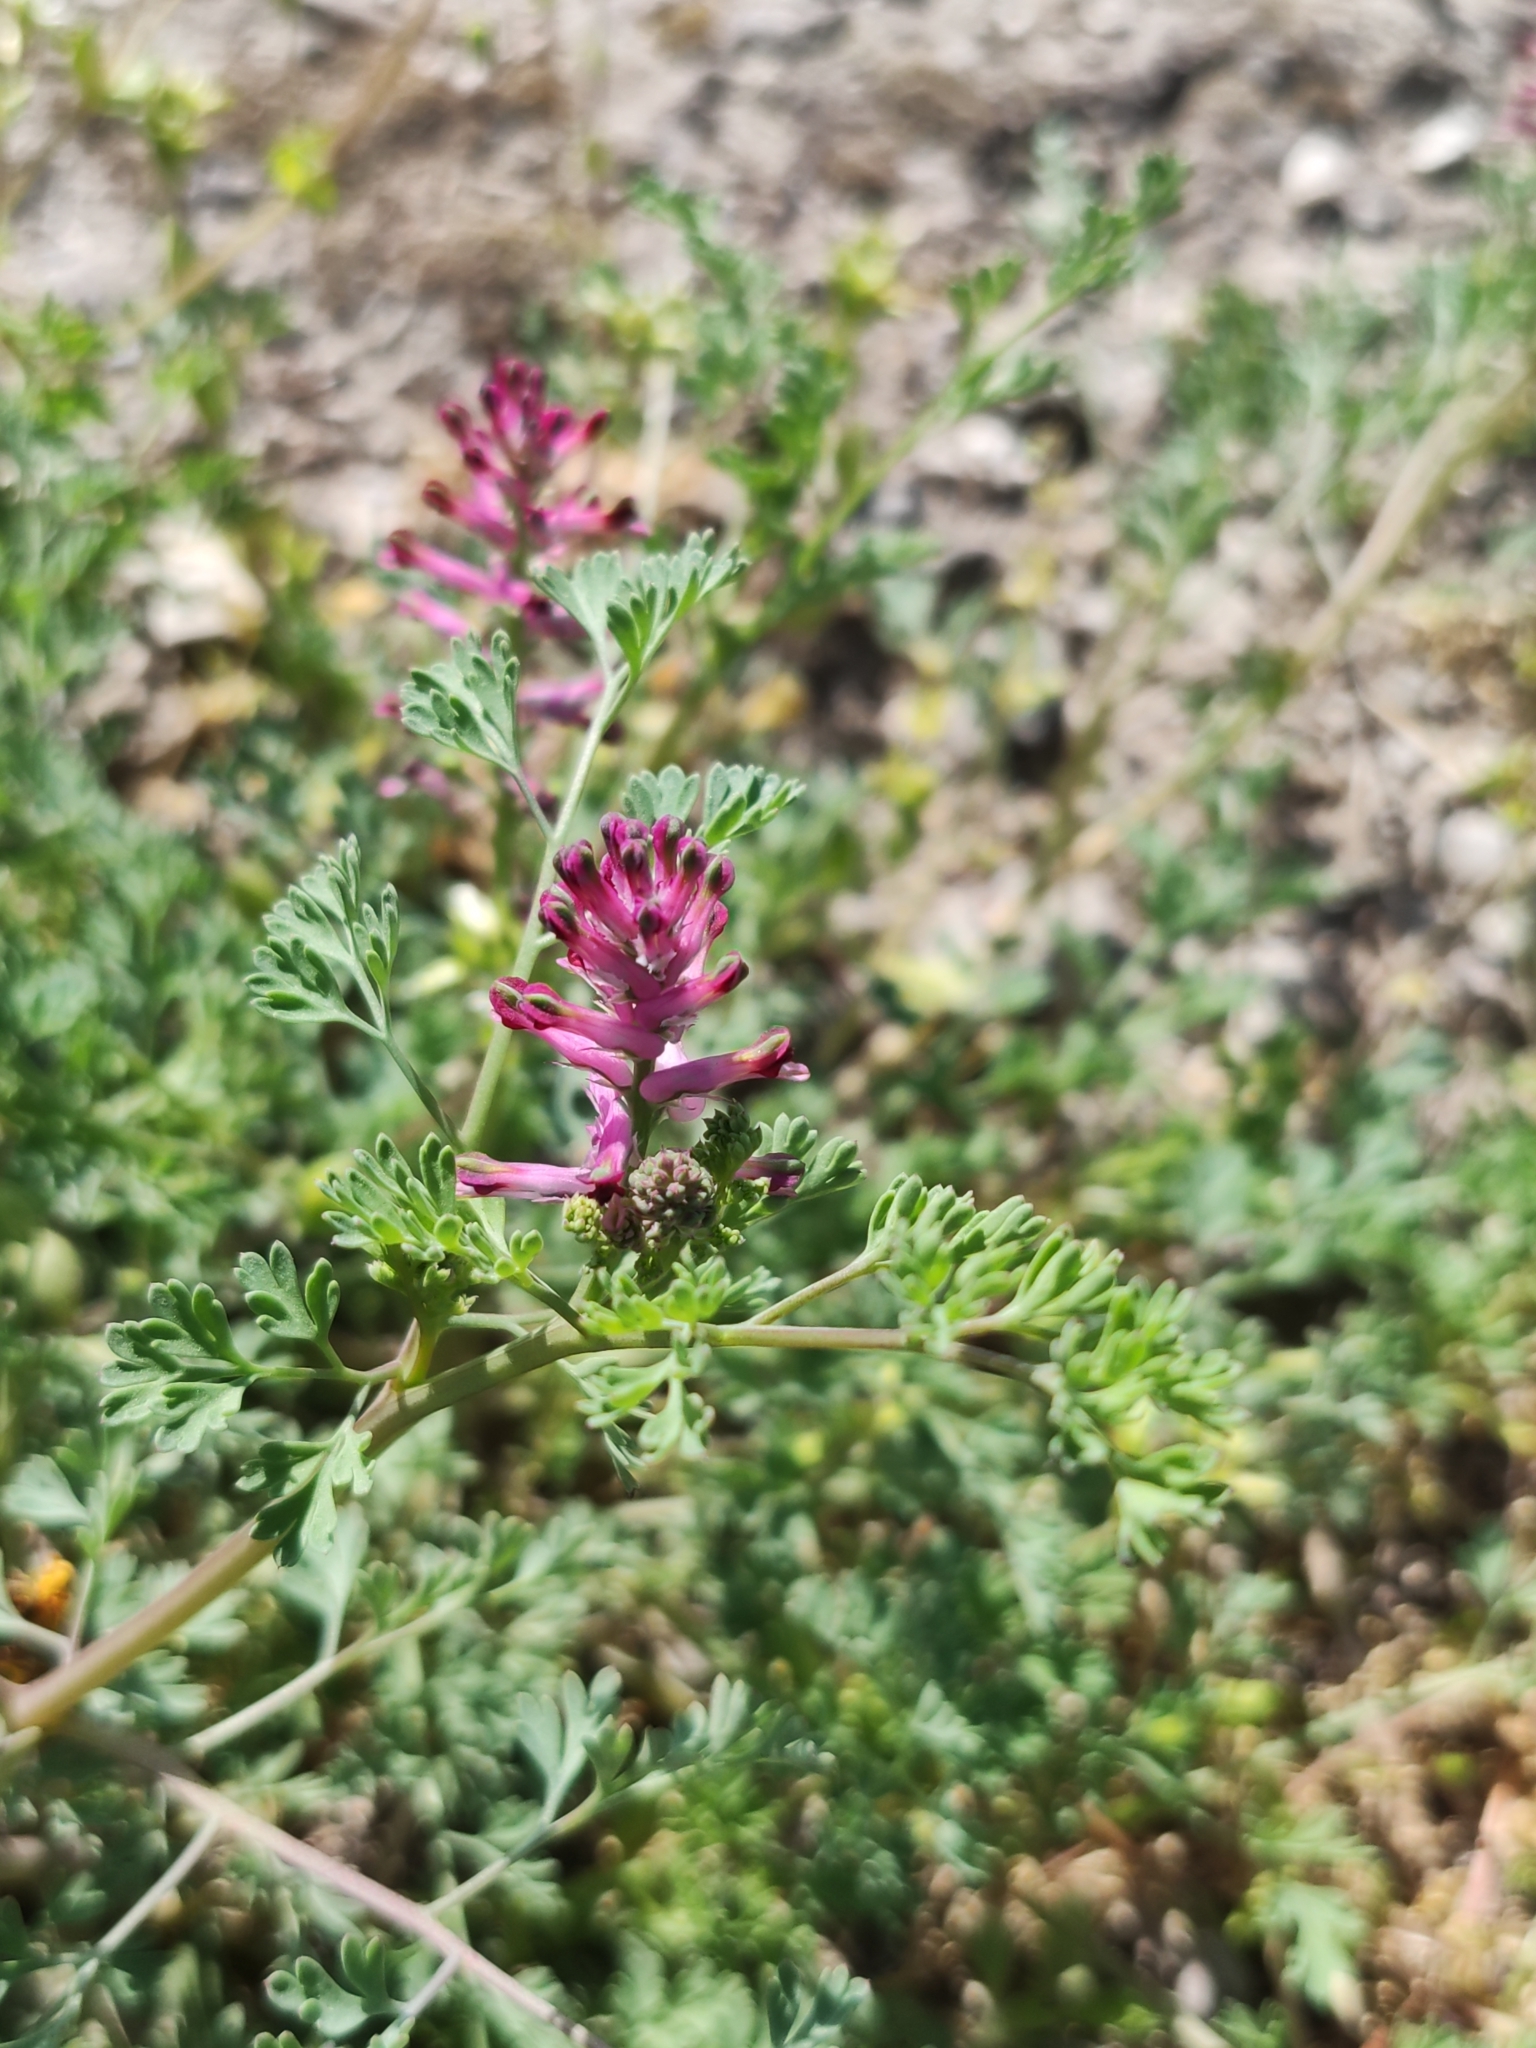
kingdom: Plantae
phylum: Tracheophyta
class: Magnoliopsida
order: Ranunculales
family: Papaveraceae
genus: Fumaria
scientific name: Fumaria officinalis
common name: Common fumitory
